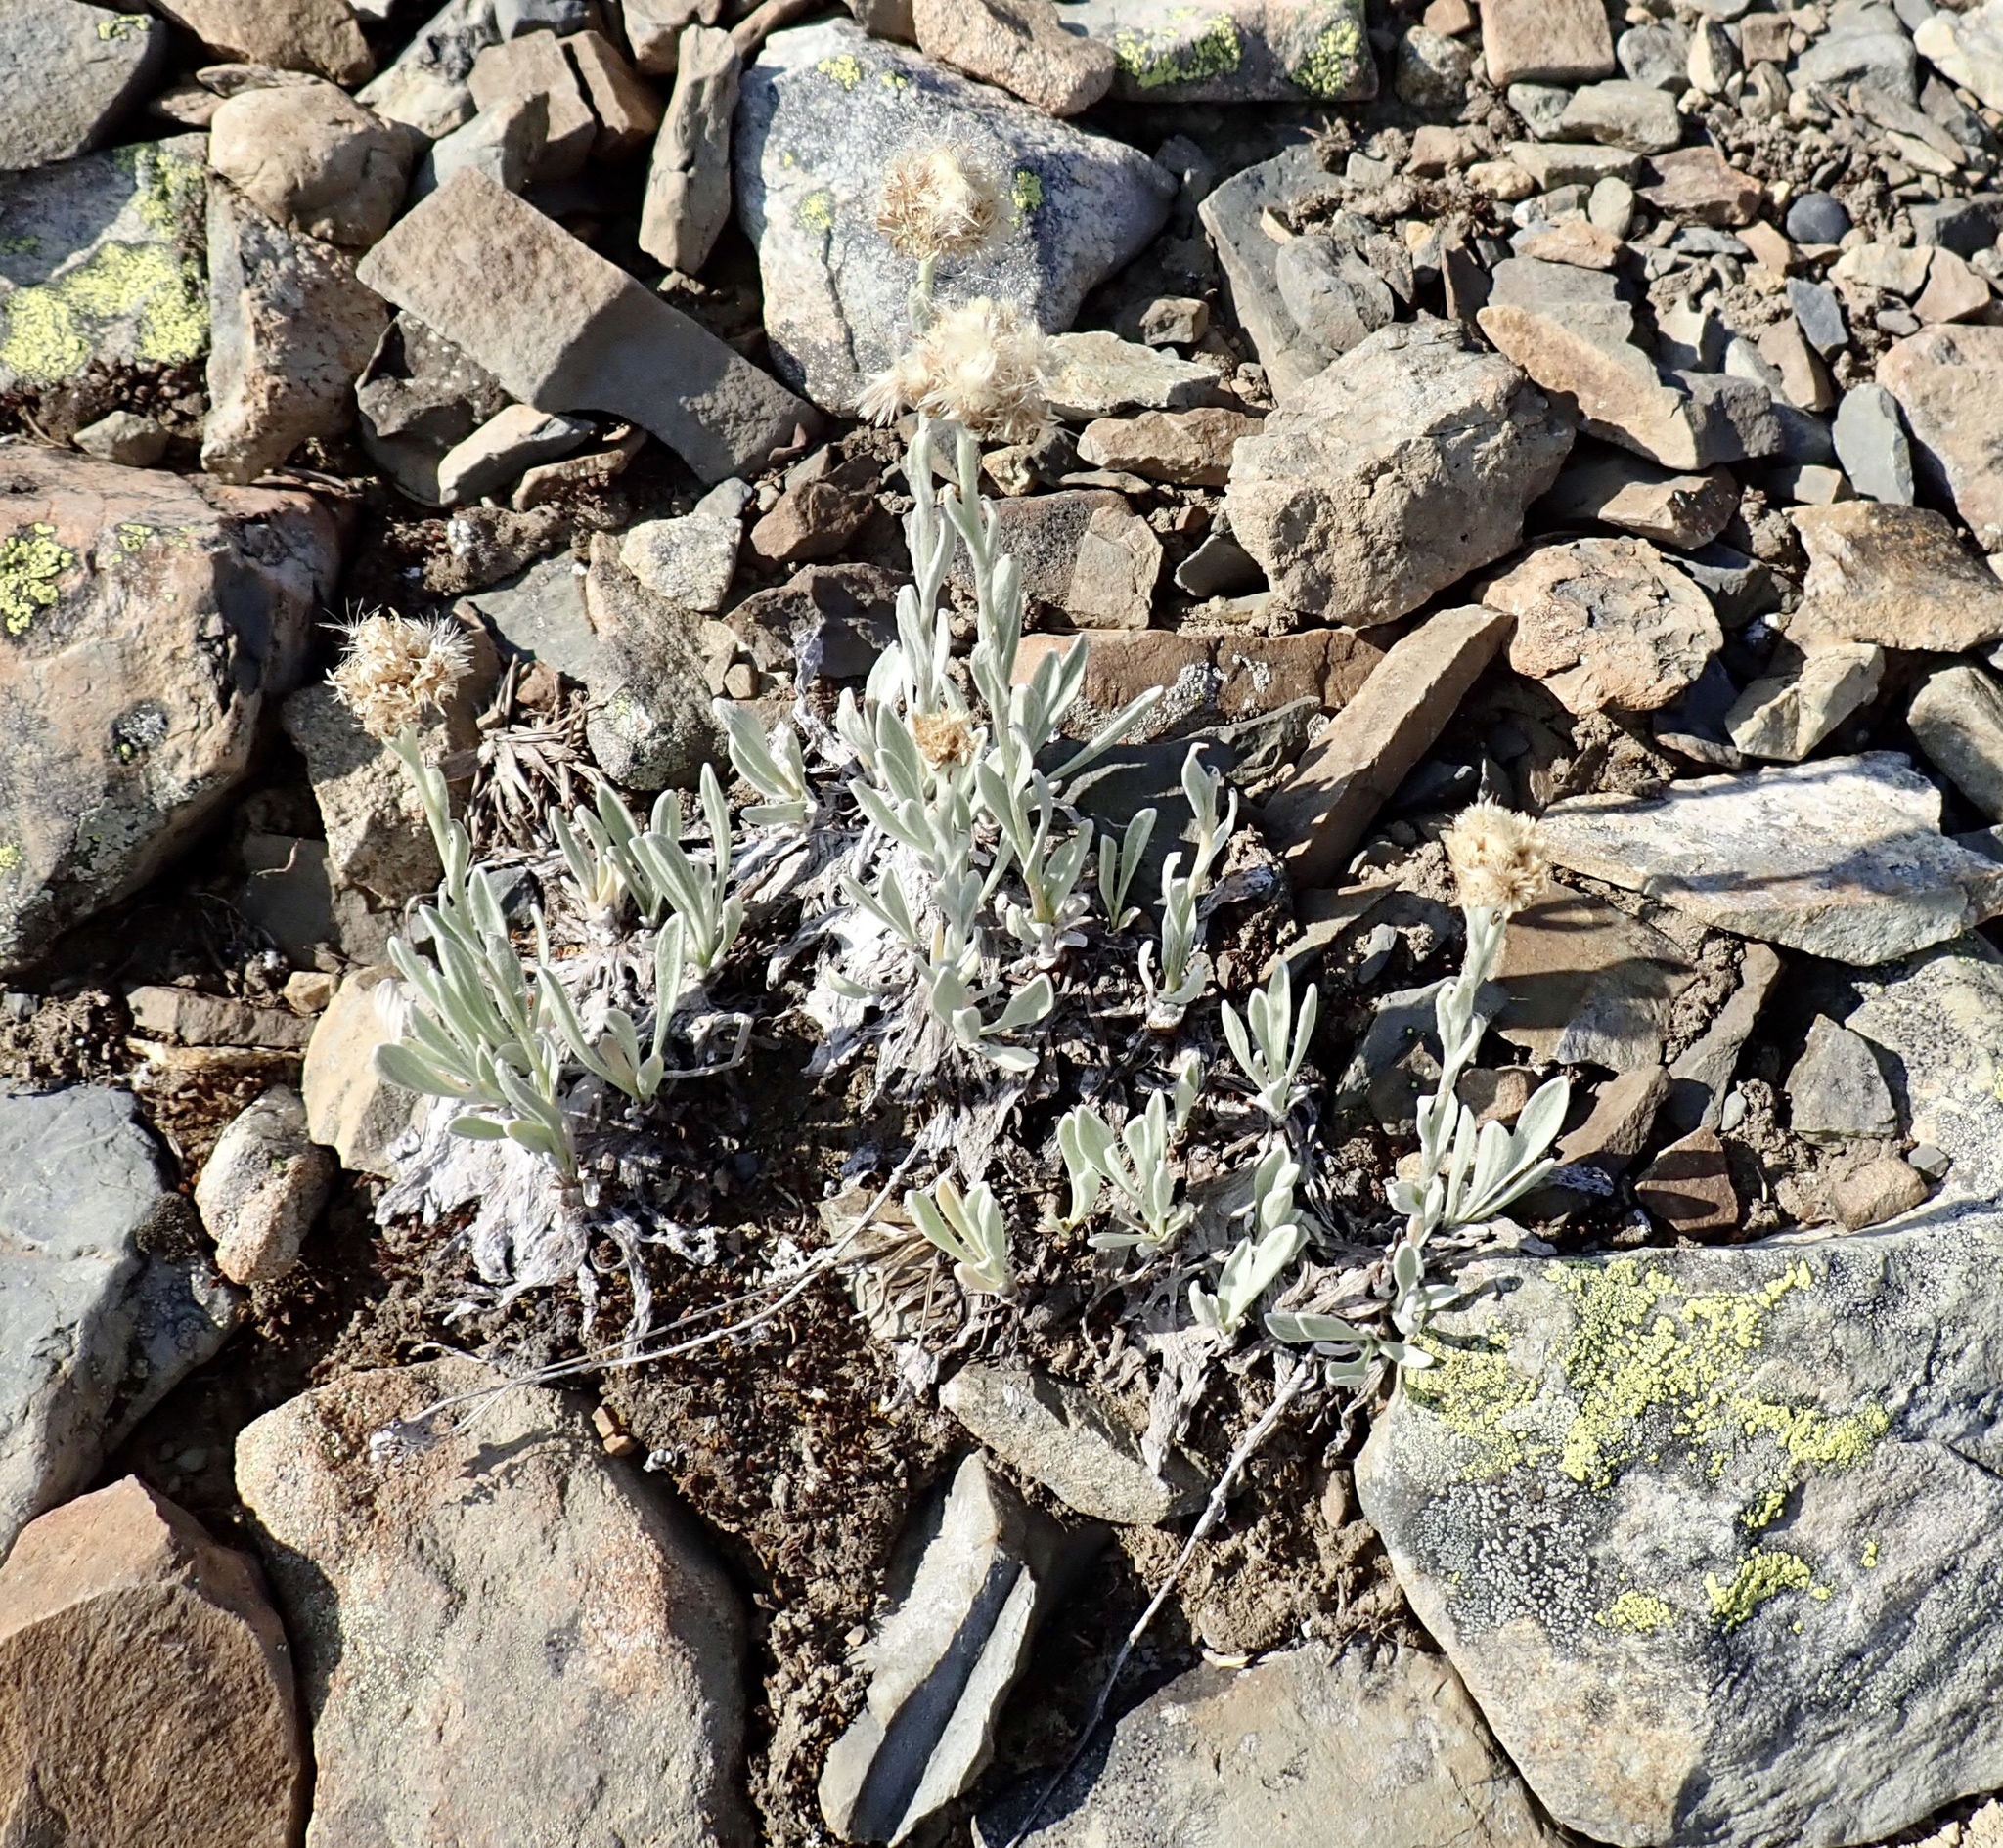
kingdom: Plantae
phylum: Tracheophyta
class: Magnoliopsida
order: Asterales
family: Asteraceae
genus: Antennaria
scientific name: Antennaria lanata
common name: Woolly pussytoes
